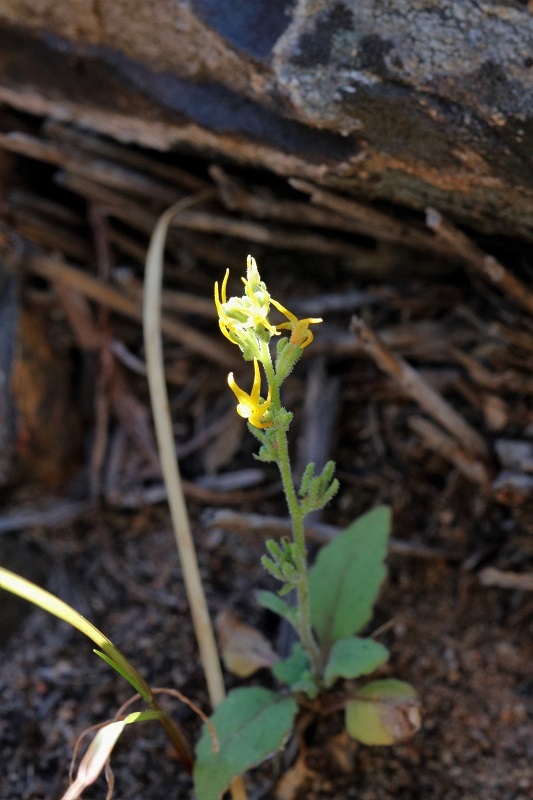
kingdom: Plantae
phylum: Tracheophyta
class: Magnoliopsida
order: Lamiales
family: Scrophulariaceae
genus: Manulea
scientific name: Manulea cheiranthus
